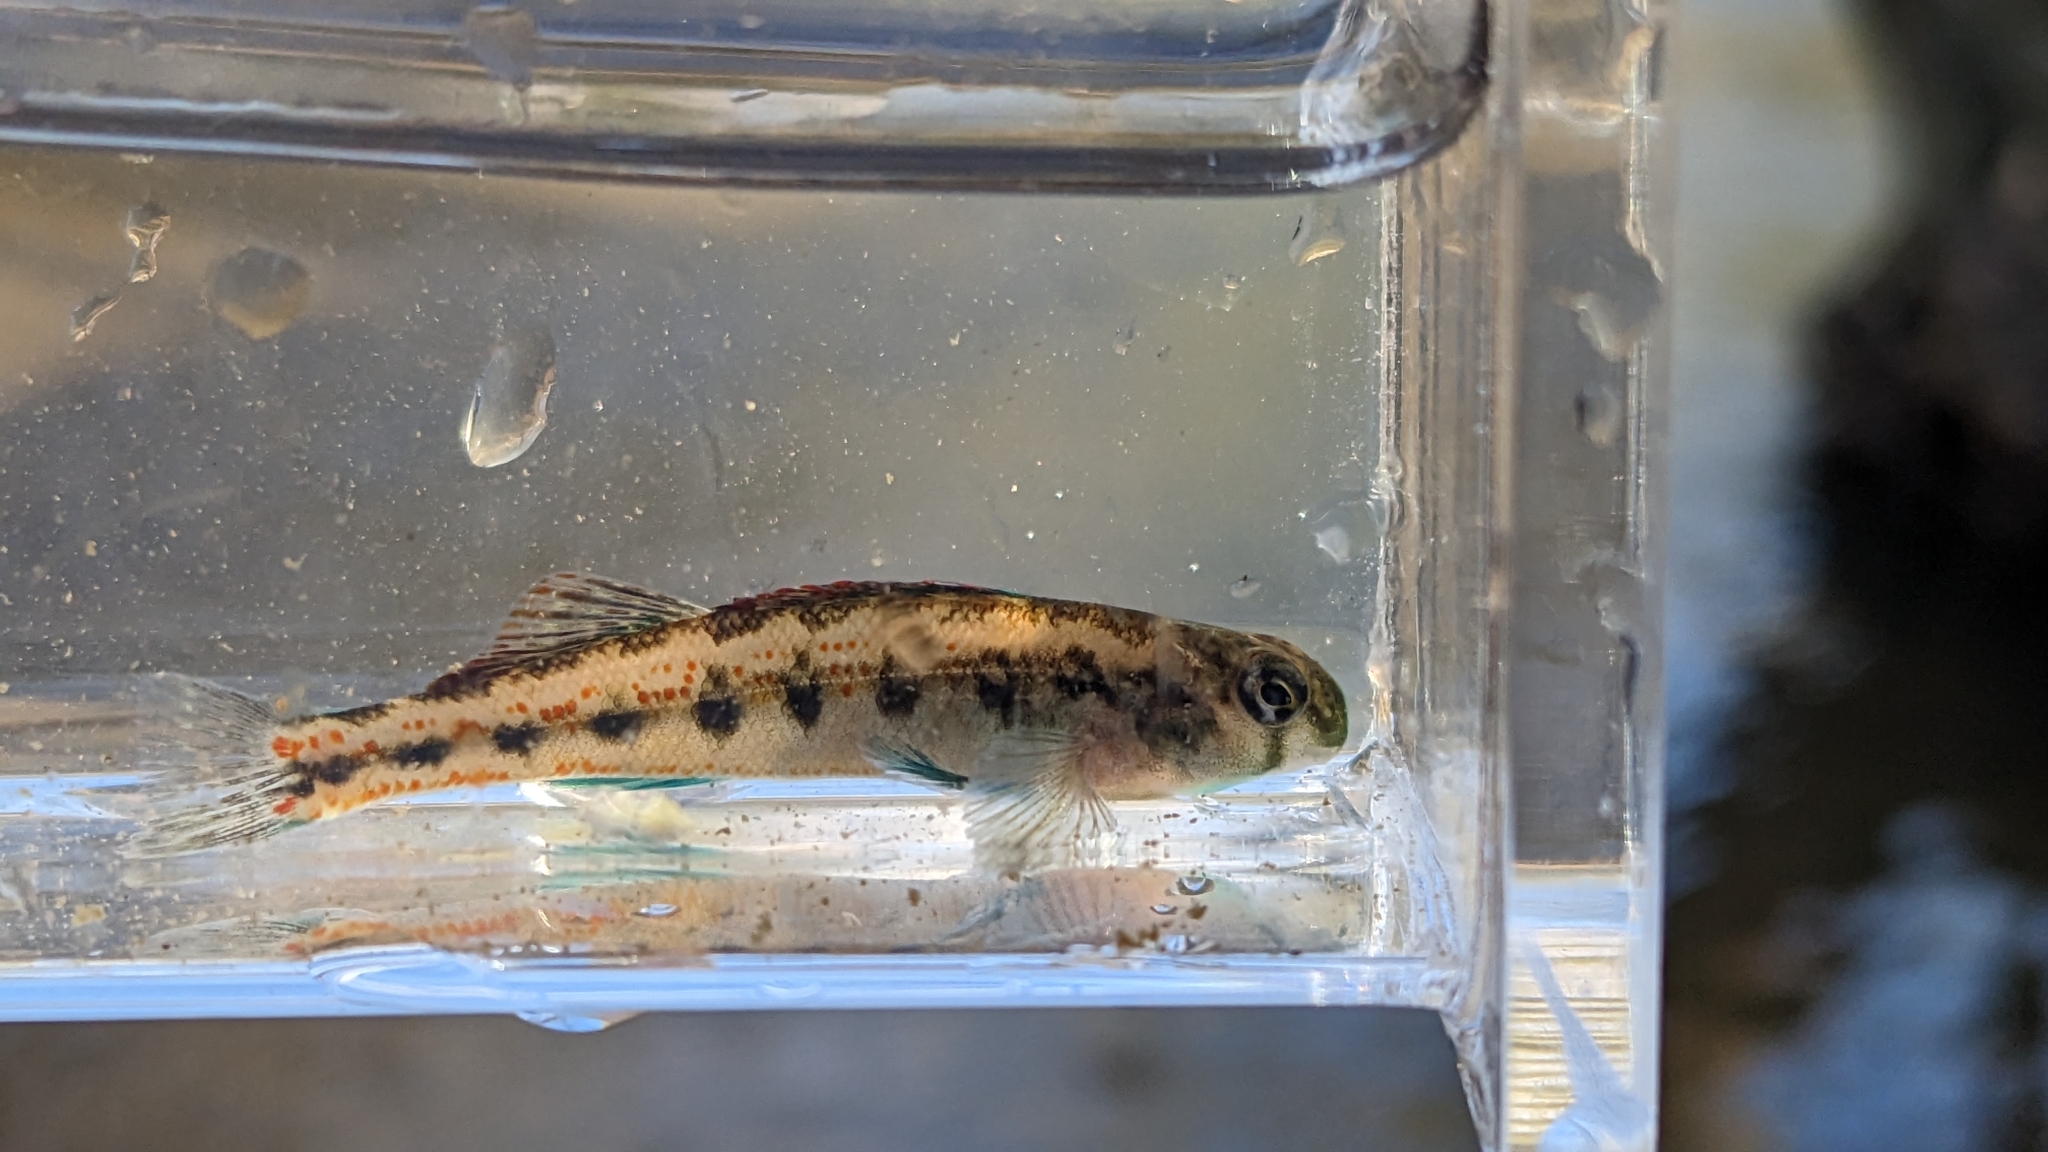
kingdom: Animalia
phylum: Chordata
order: Perciformes
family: Percidae
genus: Etheostoma
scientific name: Etheostoma planasaxatile
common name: Duck darter
